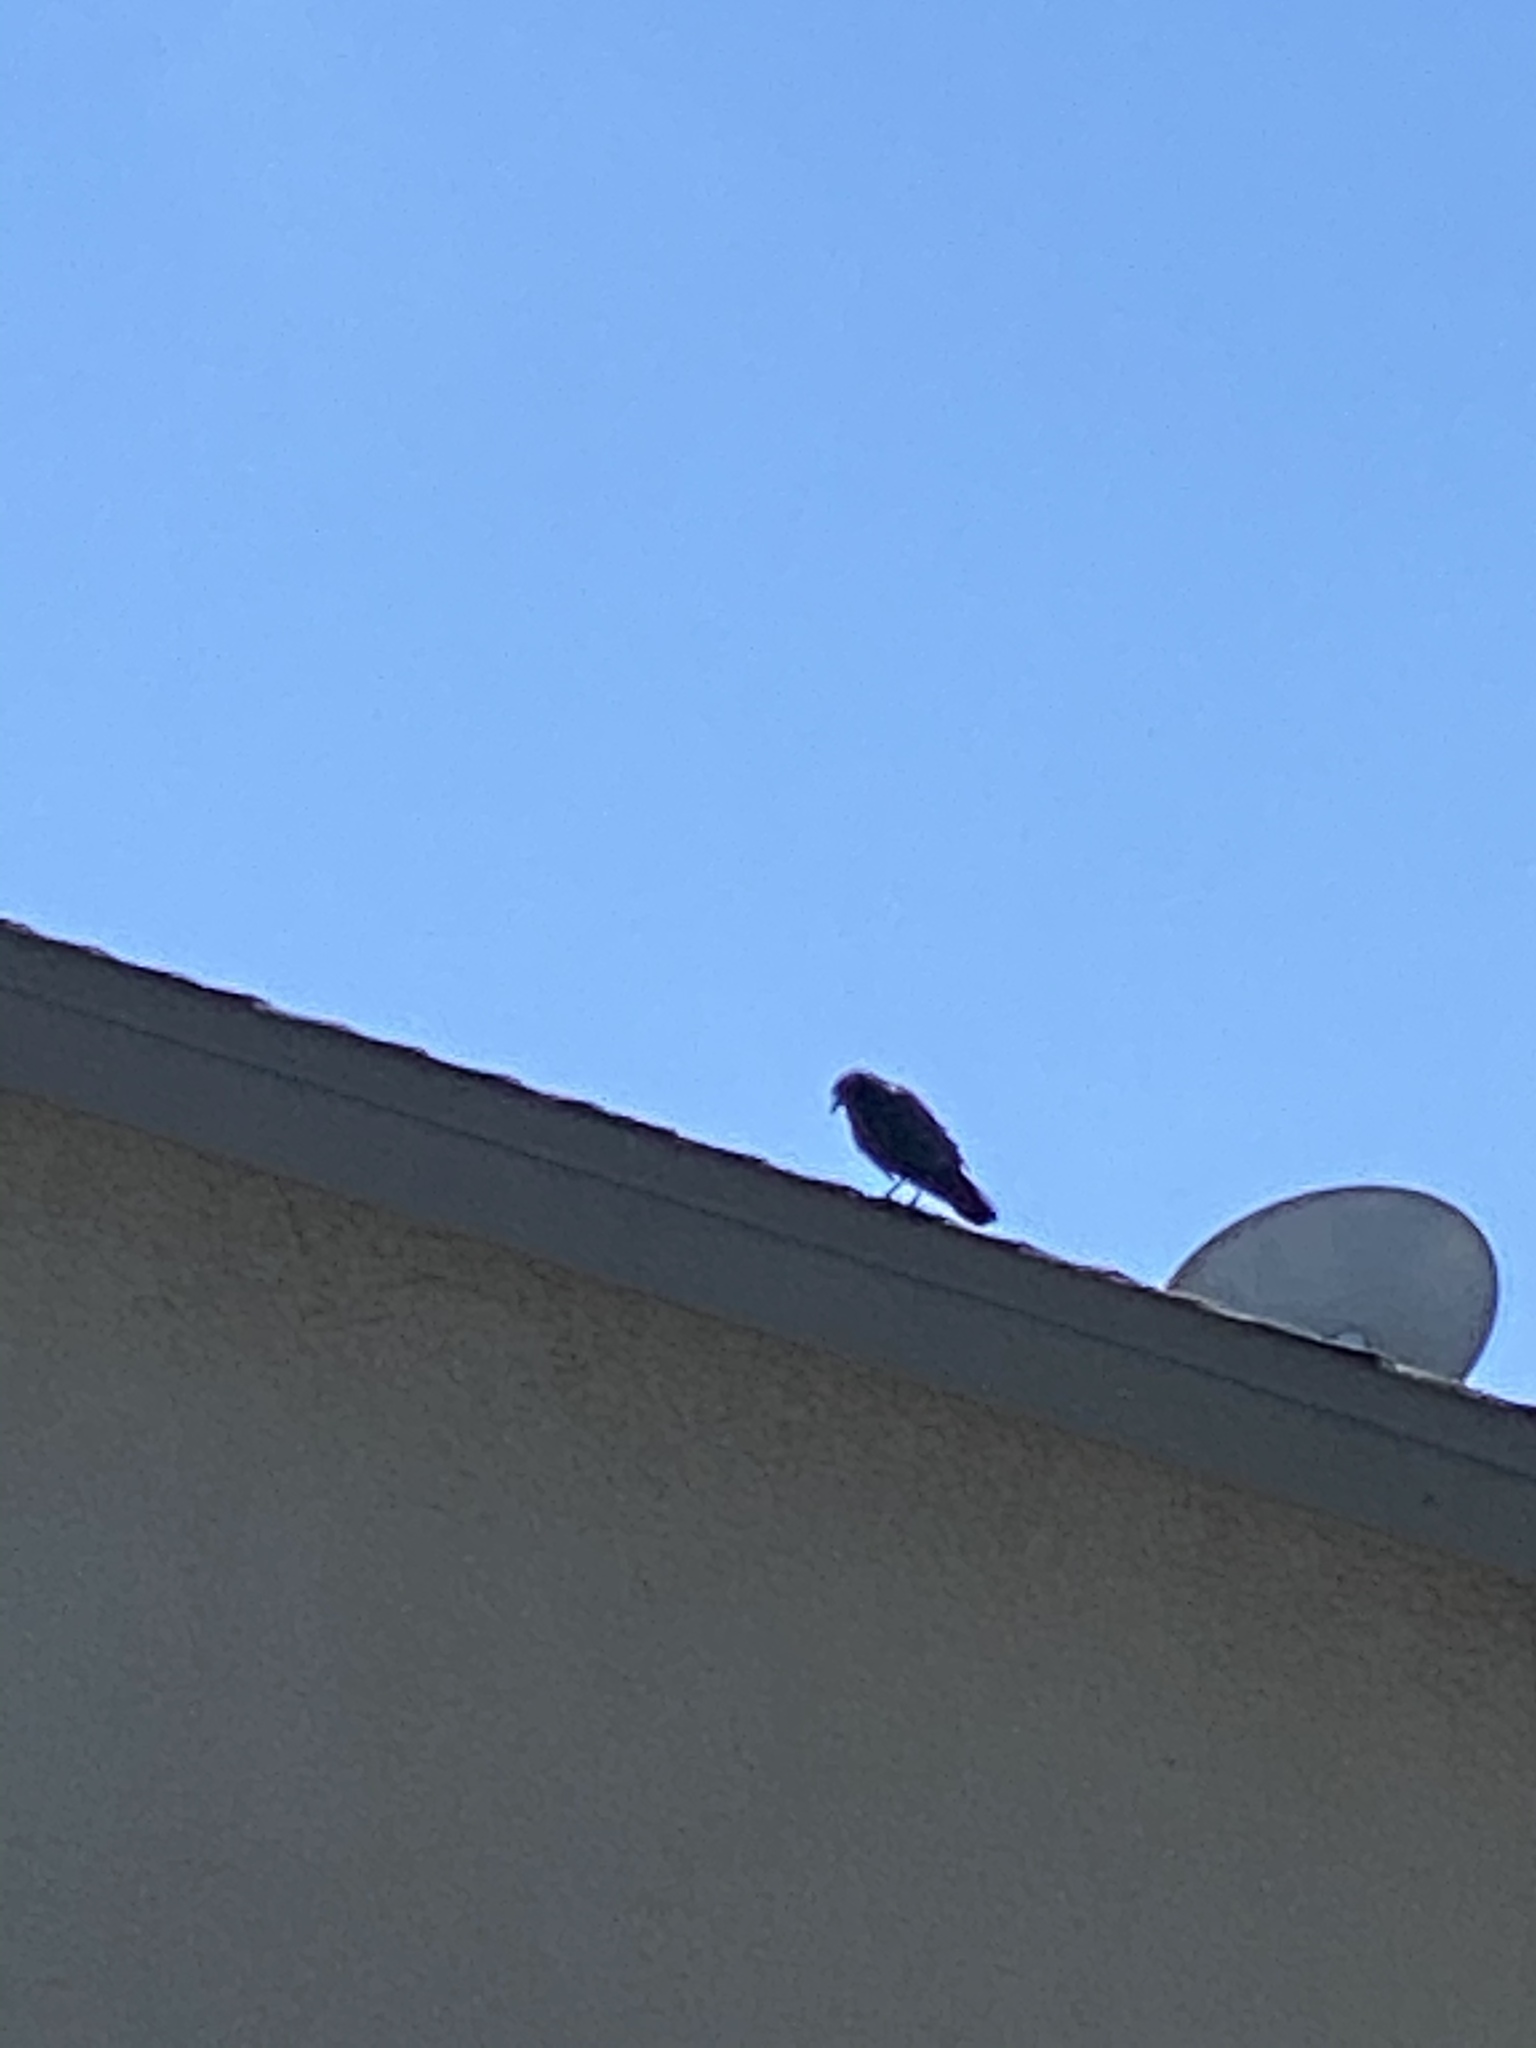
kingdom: Animalia
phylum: Chordata
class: Aves
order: Passeriformes
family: Corvidae
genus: Corvus
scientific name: Corvus brachyrhynchos
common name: American crow
